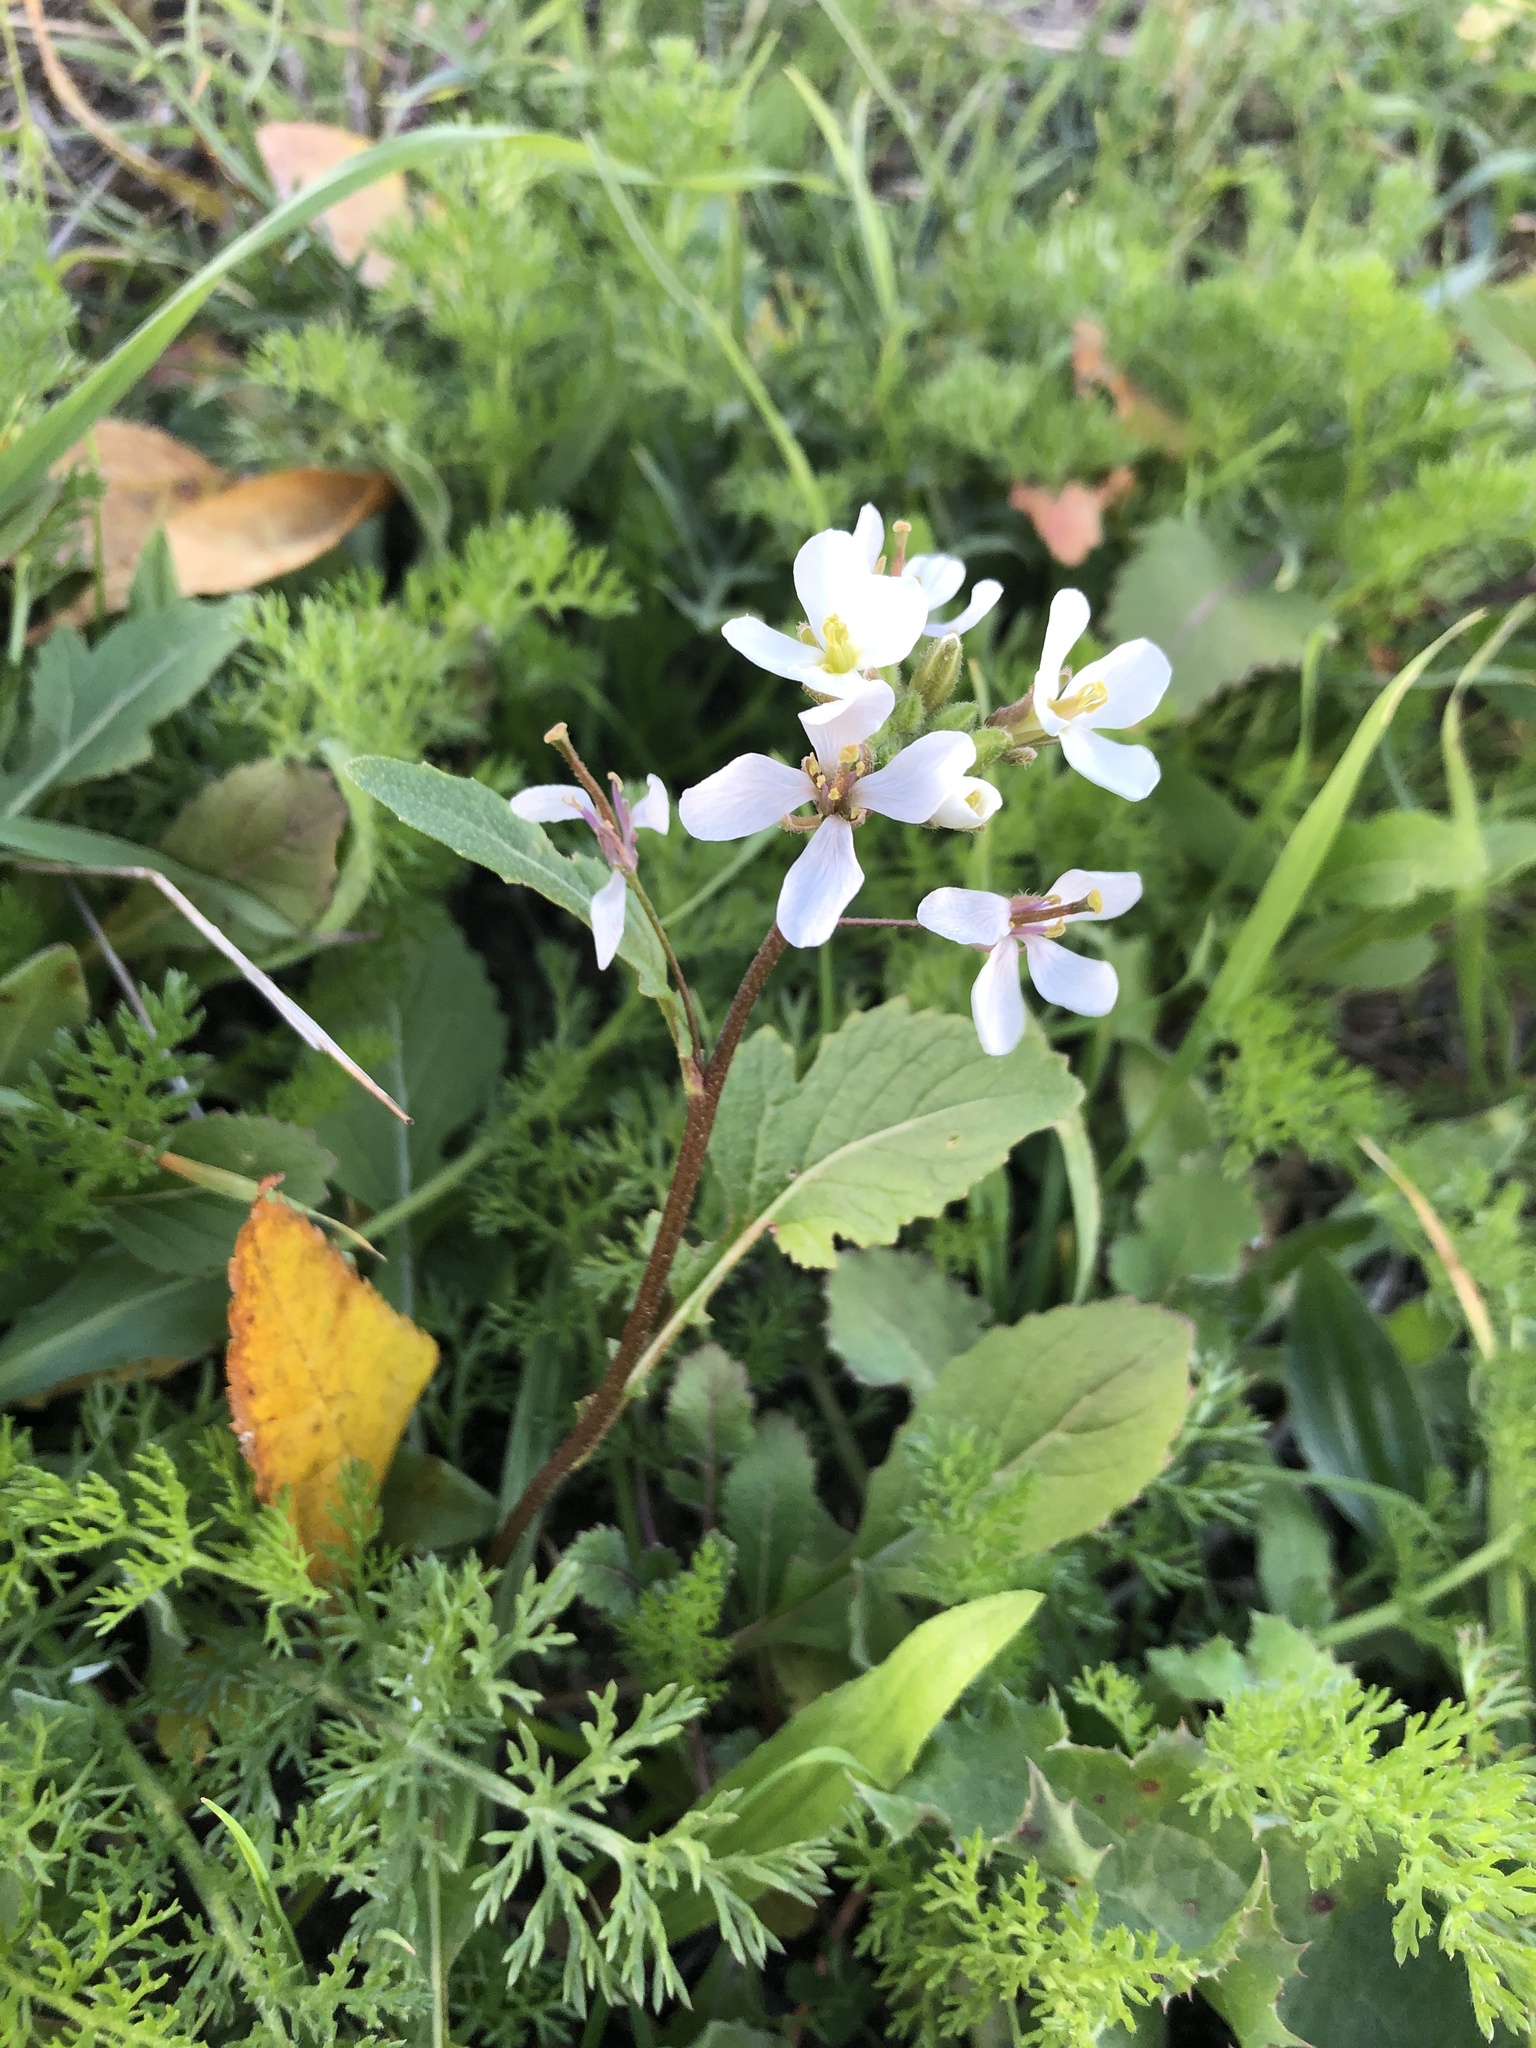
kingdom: Plantae
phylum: Tracheophyta
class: Magnoliopsida
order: Brassicales
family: Brassicaceae
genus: Diplotaxis
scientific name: Diplotaxis erucoides
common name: White rocket
